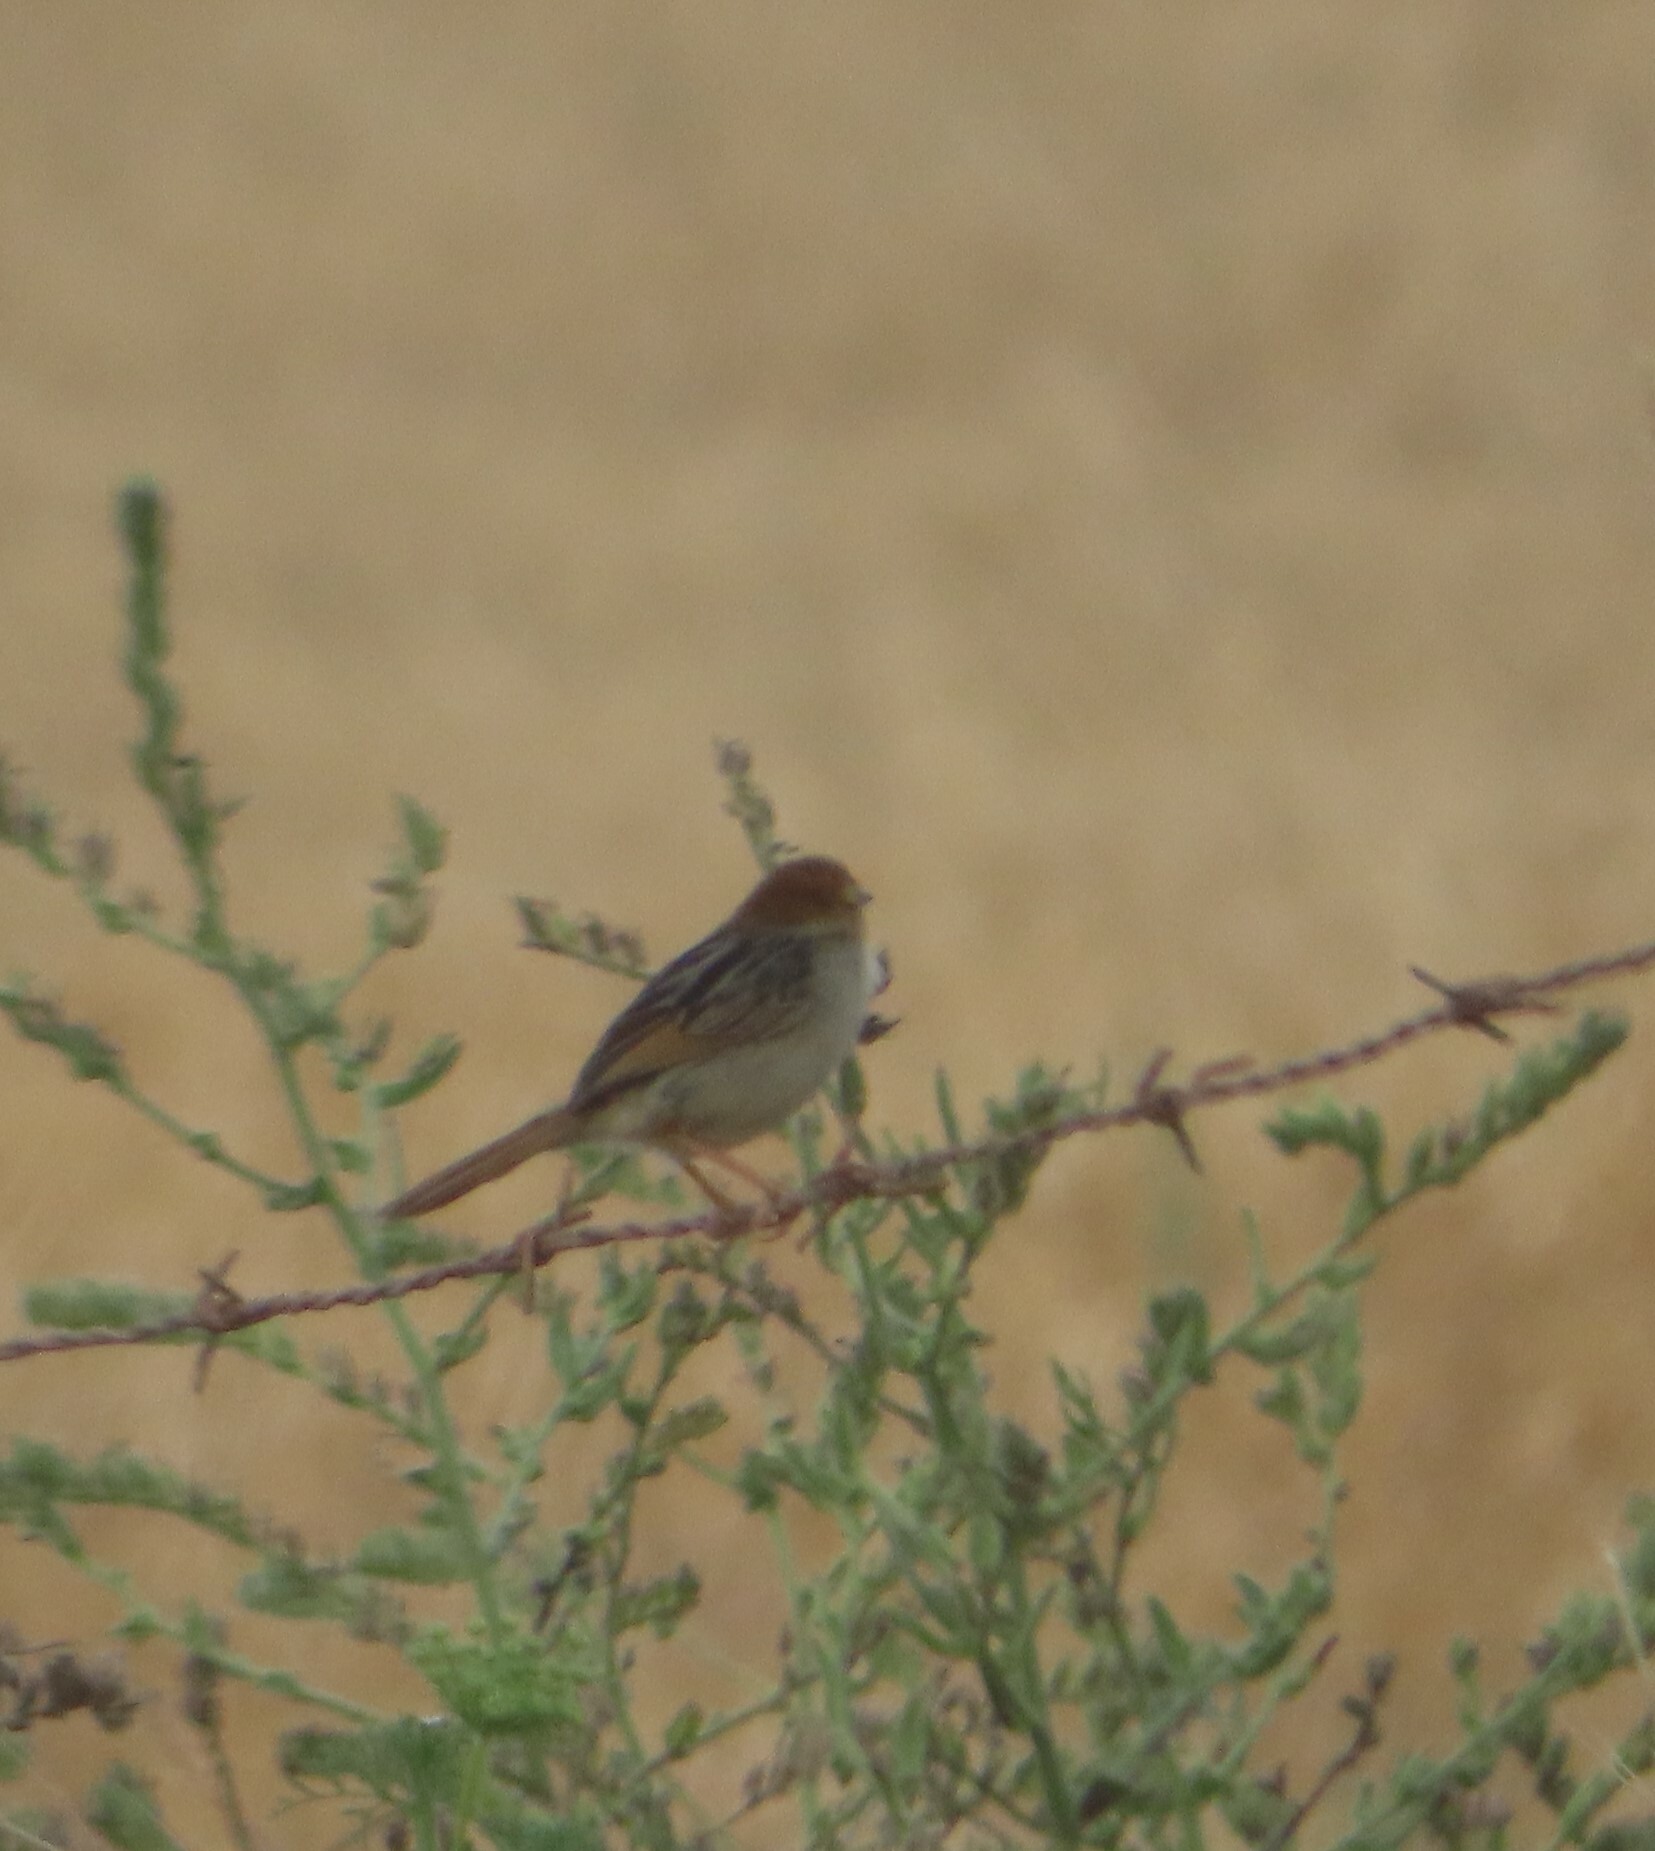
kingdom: Animalia
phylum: Chordata
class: Aves
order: Passeriformes
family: Cisticolidae
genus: Cisticola
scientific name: Cisticola tinniens
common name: Levaillant's cisticola
